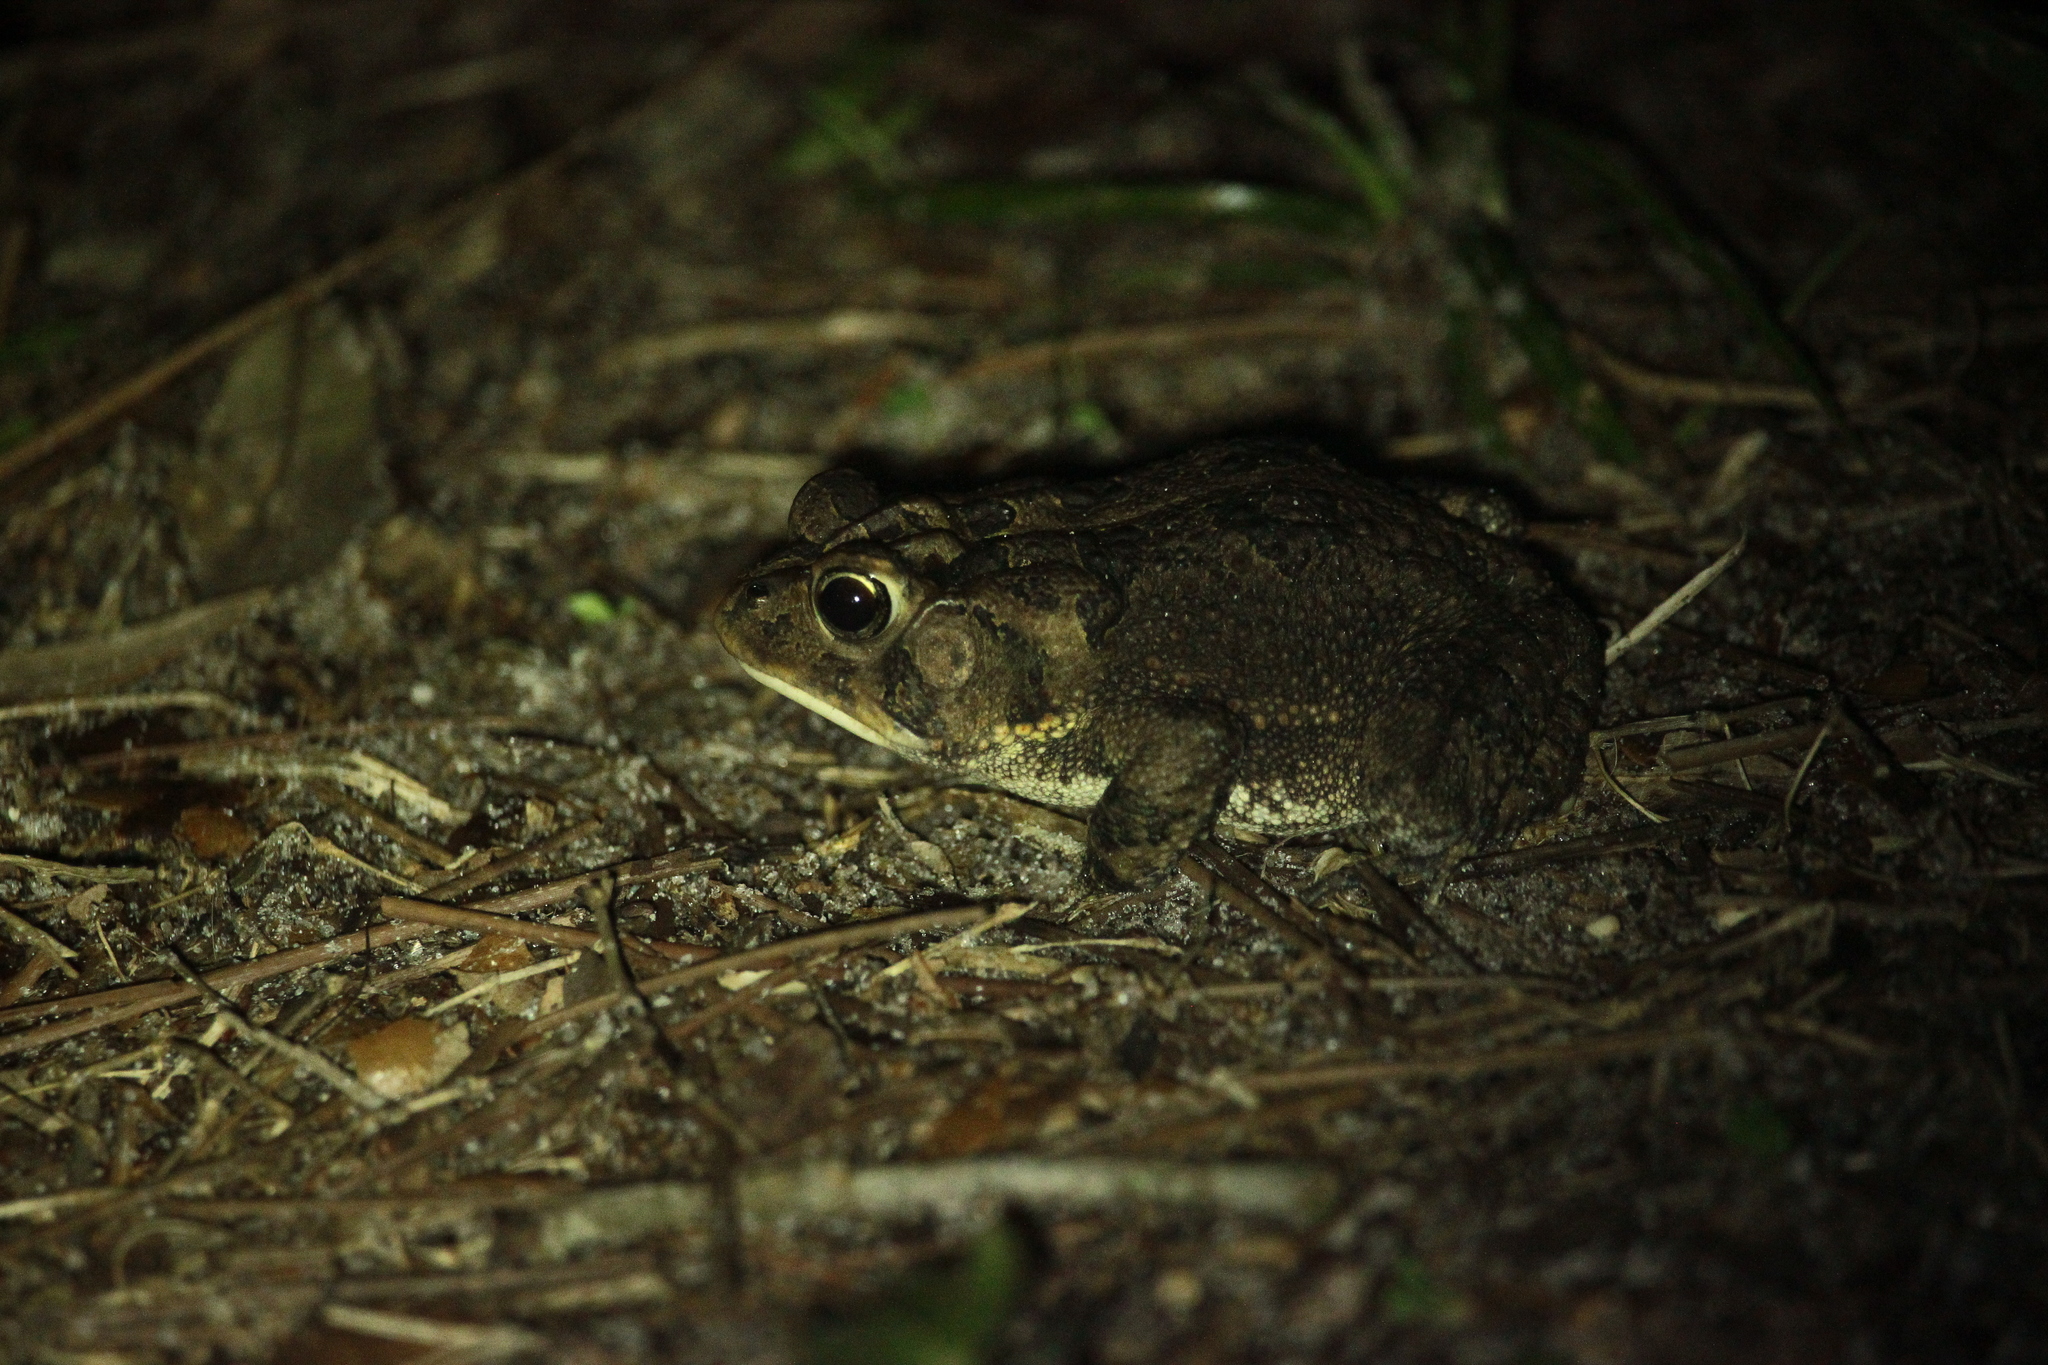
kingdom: Animalia
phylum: Chordata
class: Amphibia
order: Anura
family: Bufonidae
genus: Anaxyrus
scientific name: Anaxyrus terrestris
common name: Southern toad
